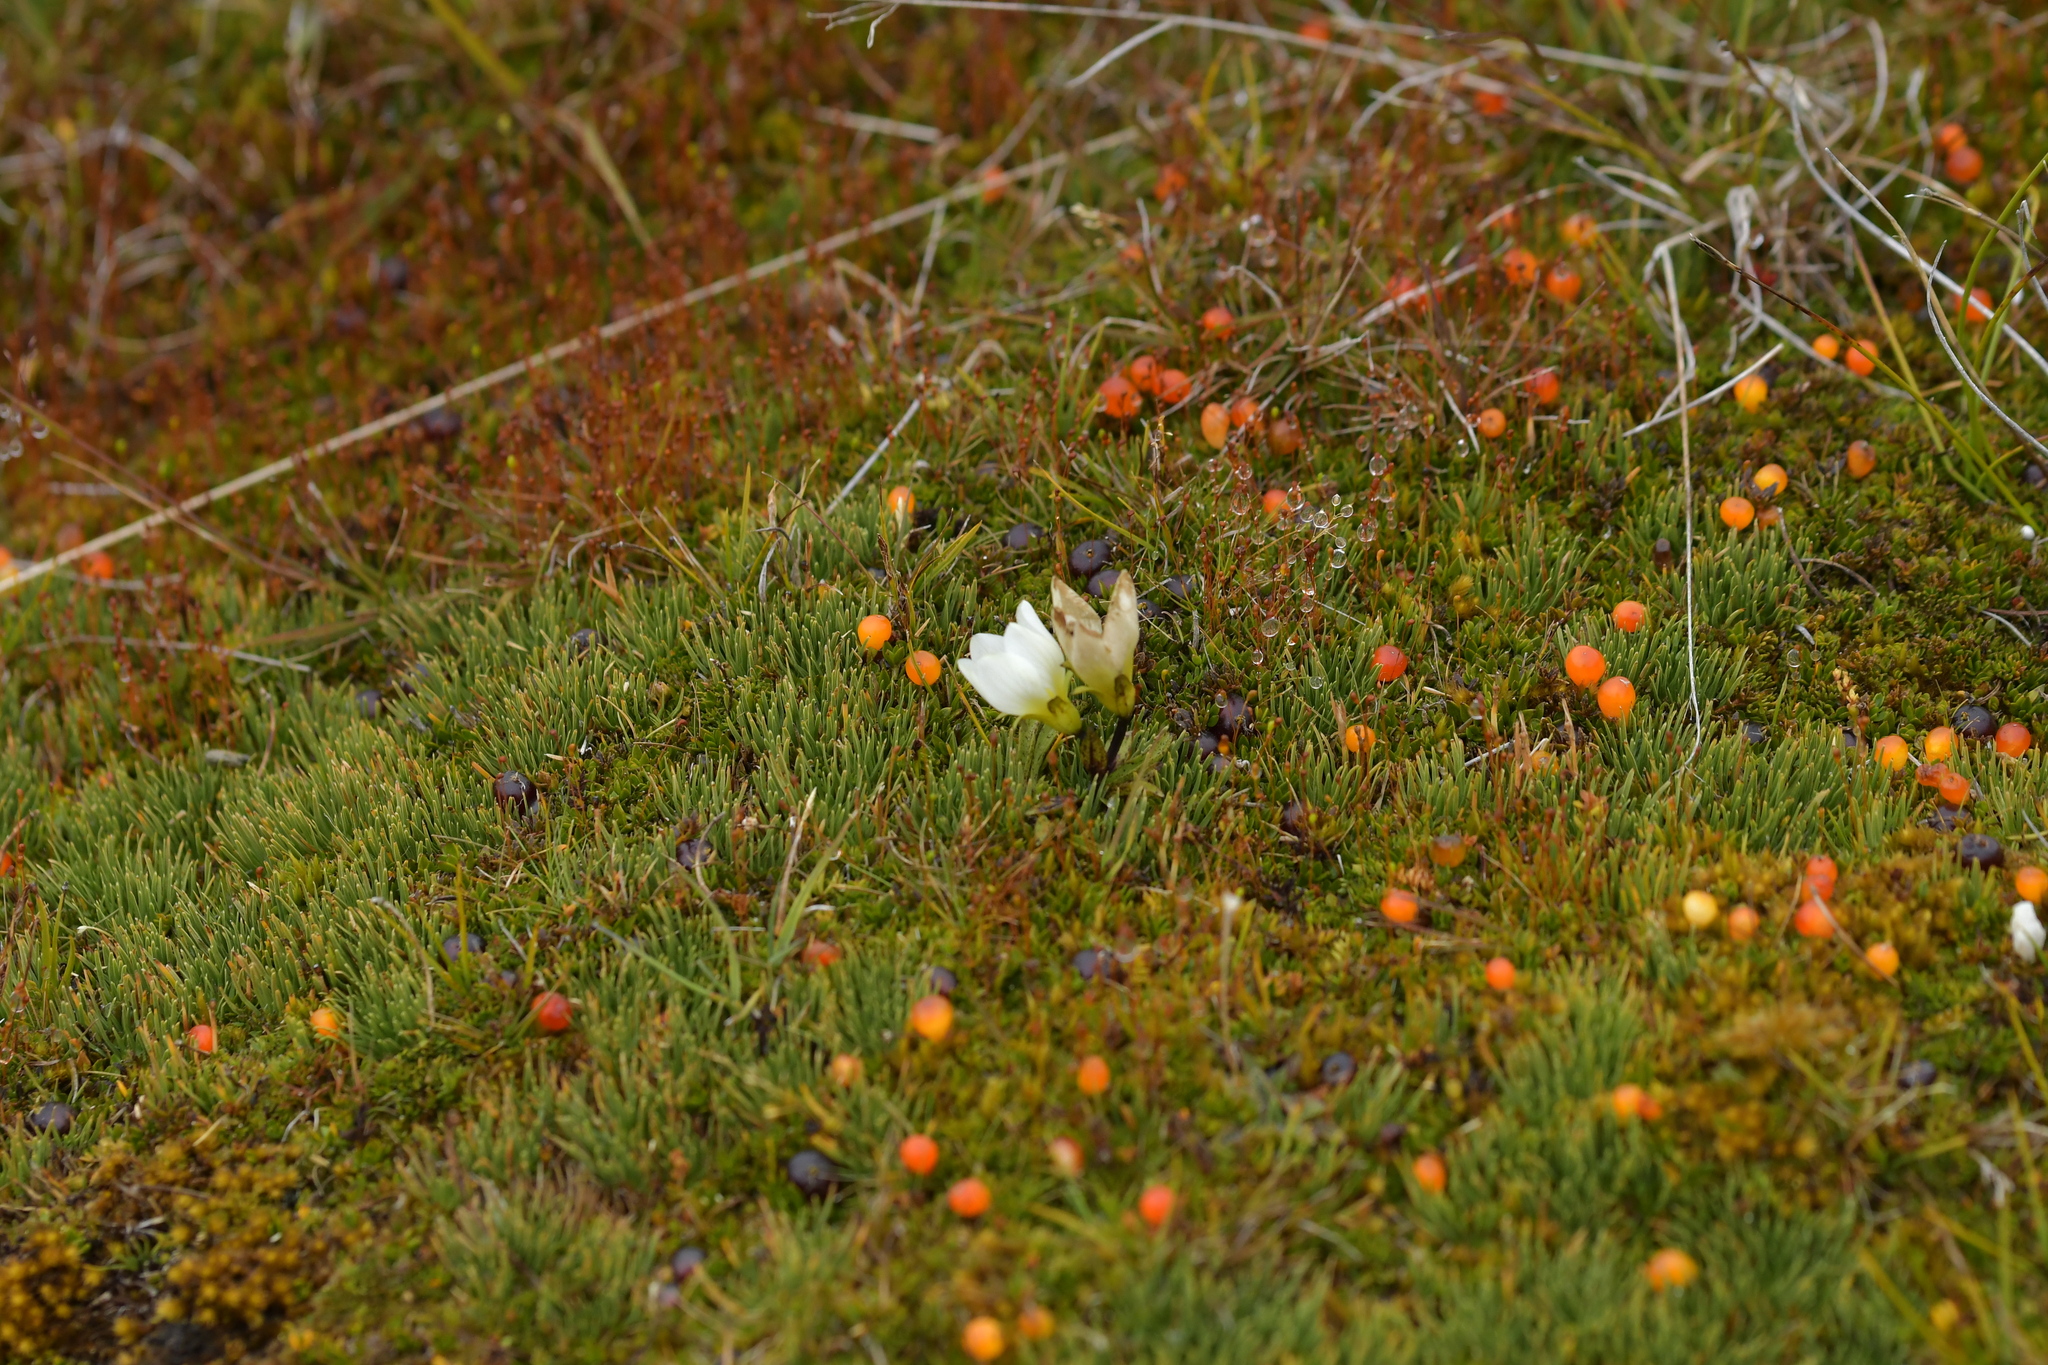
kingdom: Plantae
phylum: Tracheophyta
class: Magnoliopsida
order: Gentianales
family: Rubiaceae
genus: Nertera
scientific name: Nertera balfouriana
